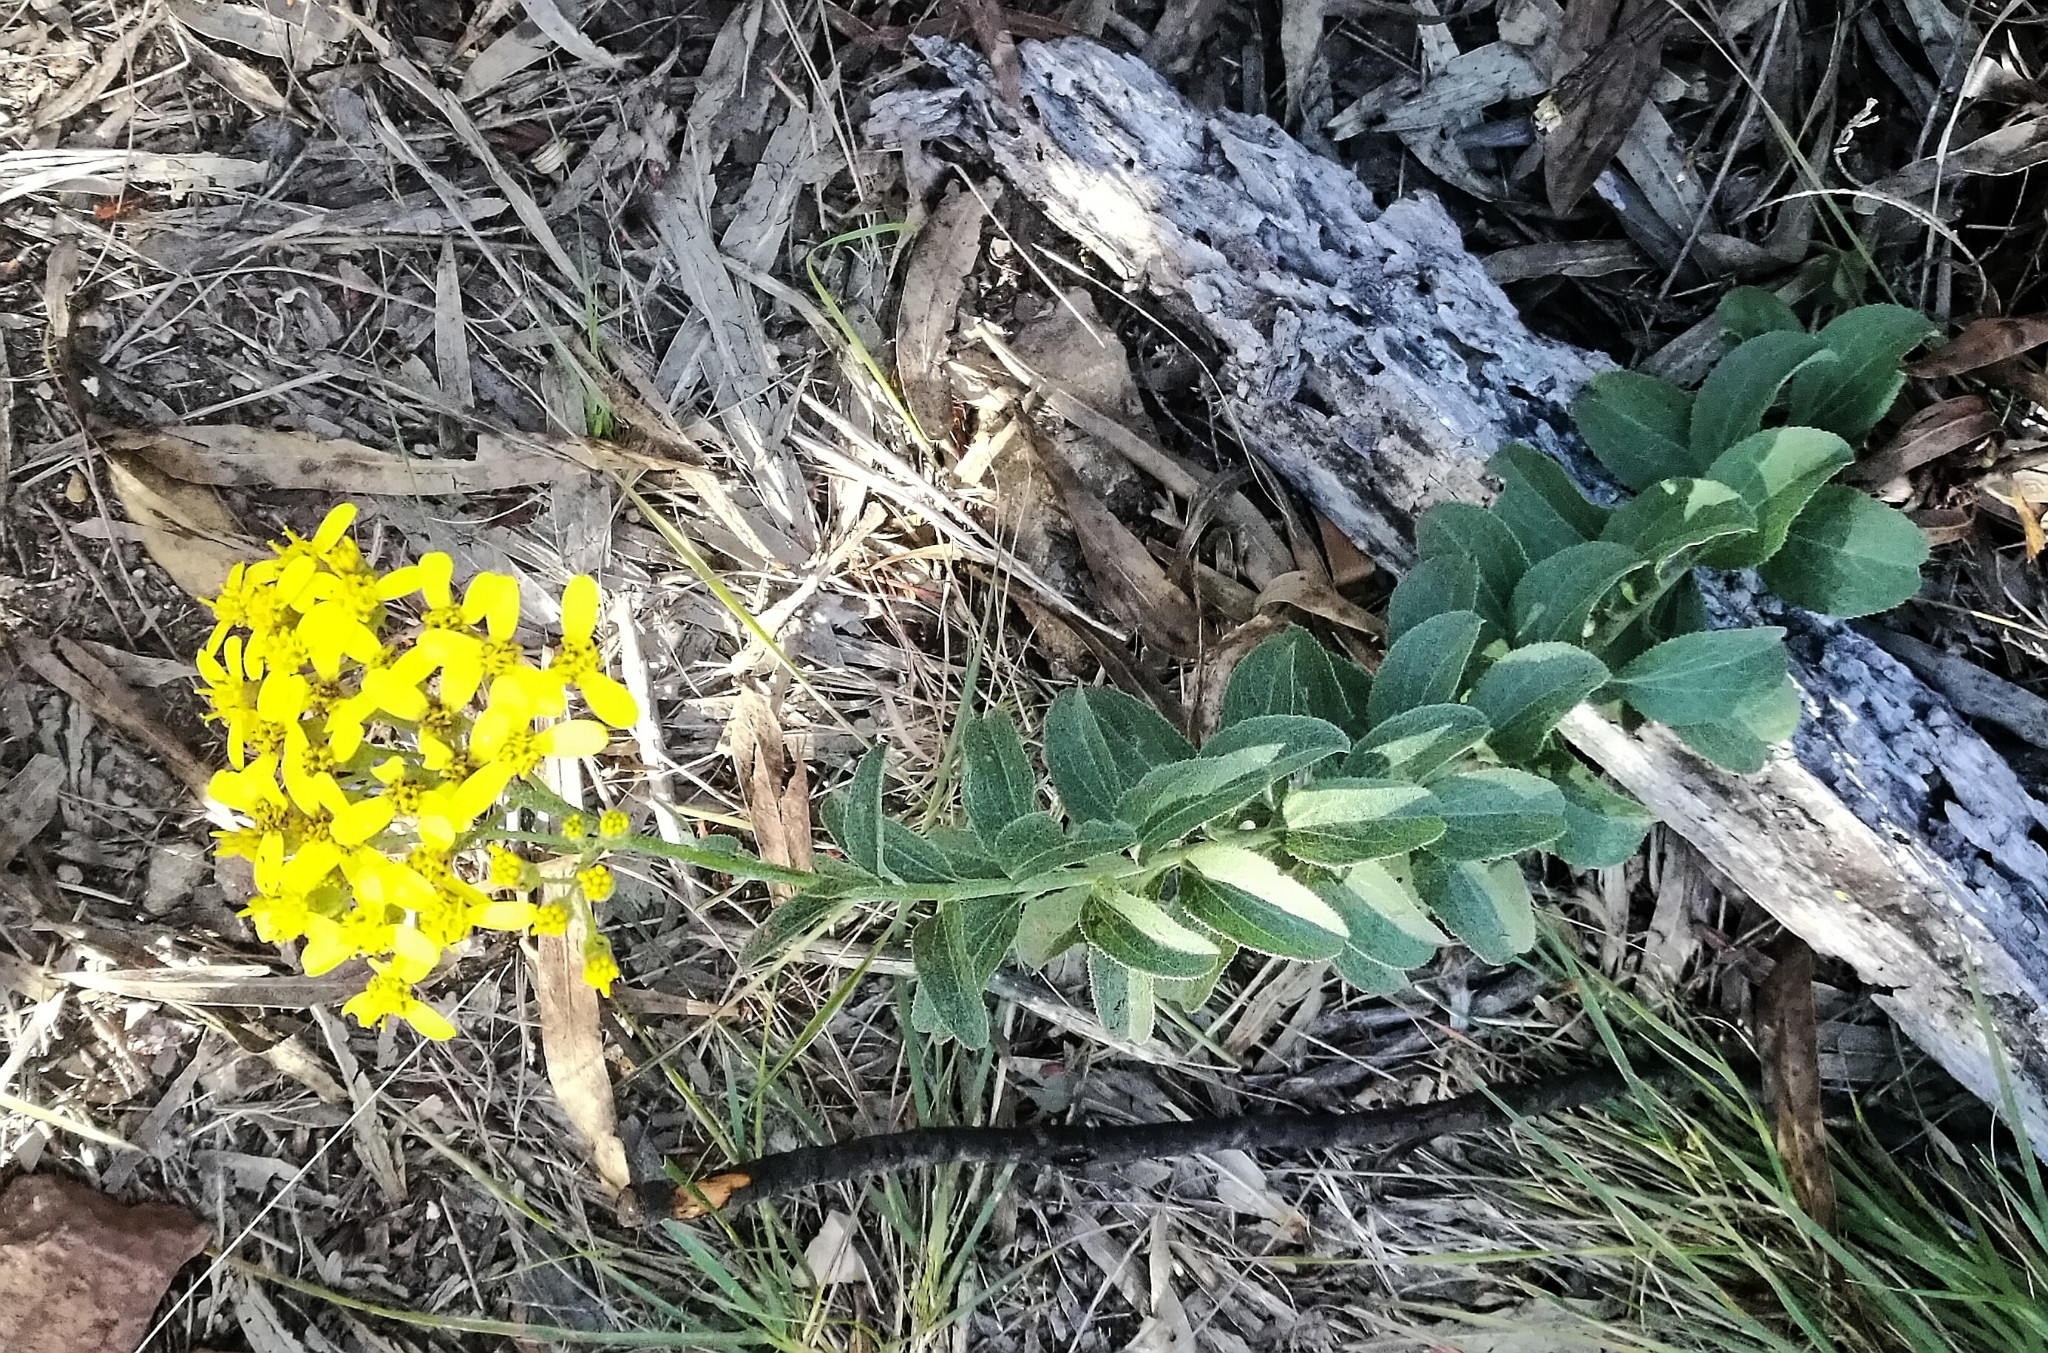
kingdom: Plantae
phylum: Tracheophyta
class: Magnoliopsida
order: Asterales
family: Asteraceae
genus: Senecio
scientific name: Senecio crenatus
